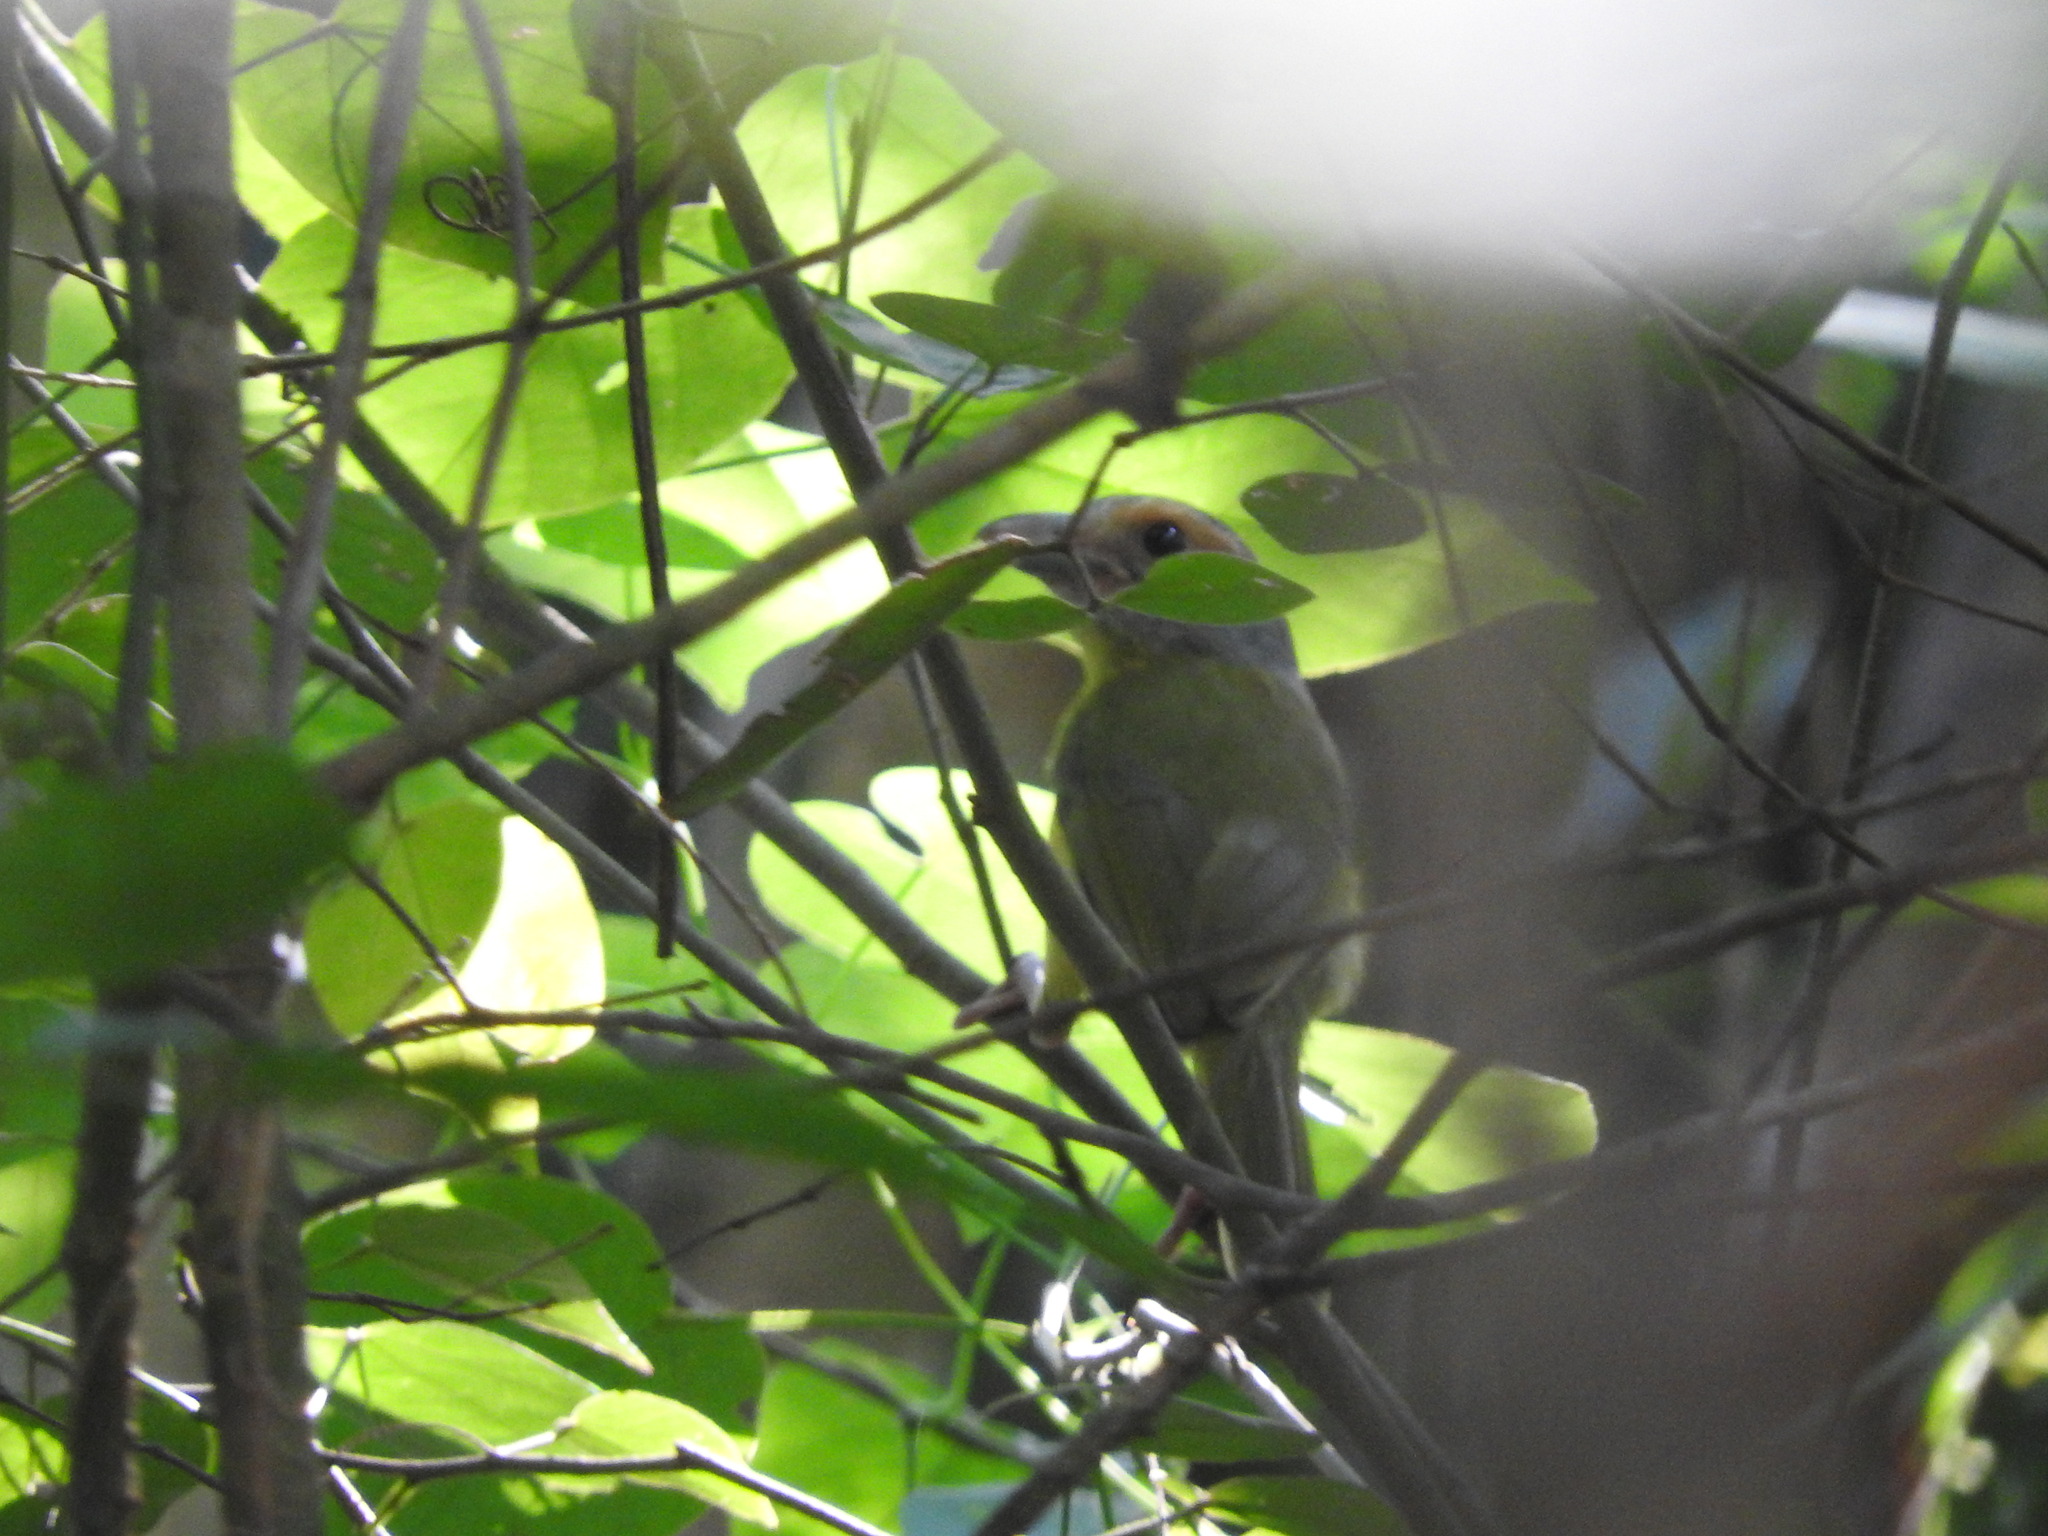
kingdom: Animalia
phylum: Chordata
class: Aves
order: Passeriformes
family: Vireonidae
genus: Cyclarhis
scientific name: Cyclarhis gujanensis
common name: Rufous-browed peppershrike
